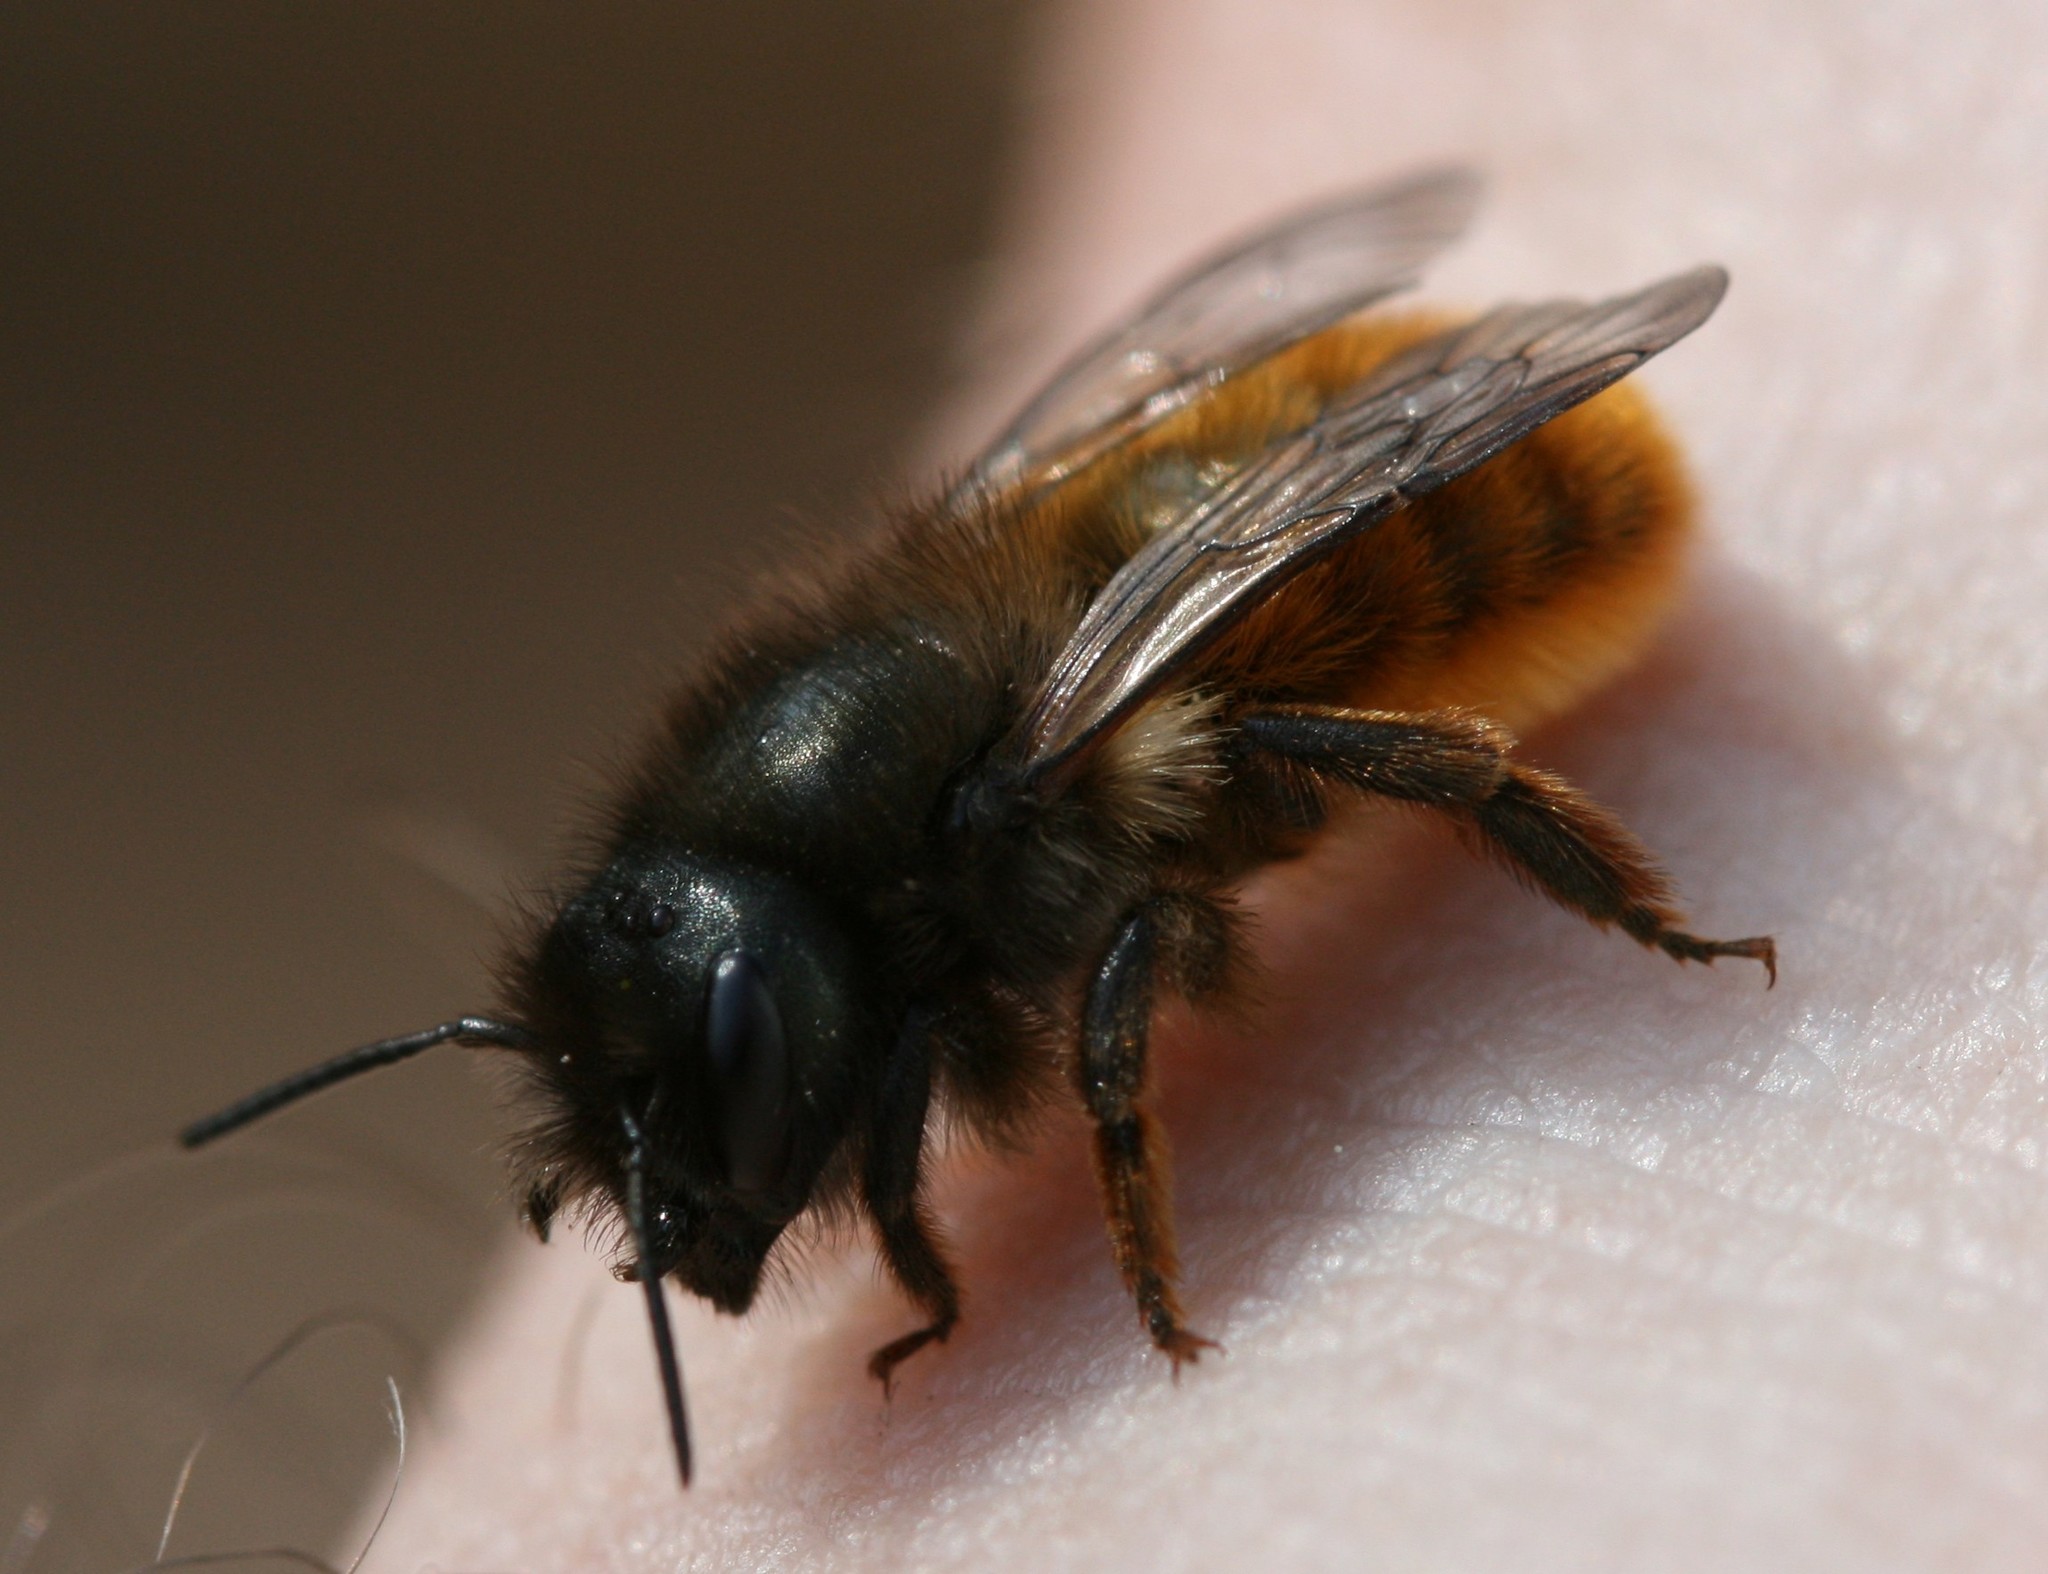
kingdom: Animalia
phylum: Arthropoda
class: Insecta
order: Hymenoptera
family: Megachilidae
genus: Osmia
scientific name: Osmia bicornis
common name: Red mason bee
